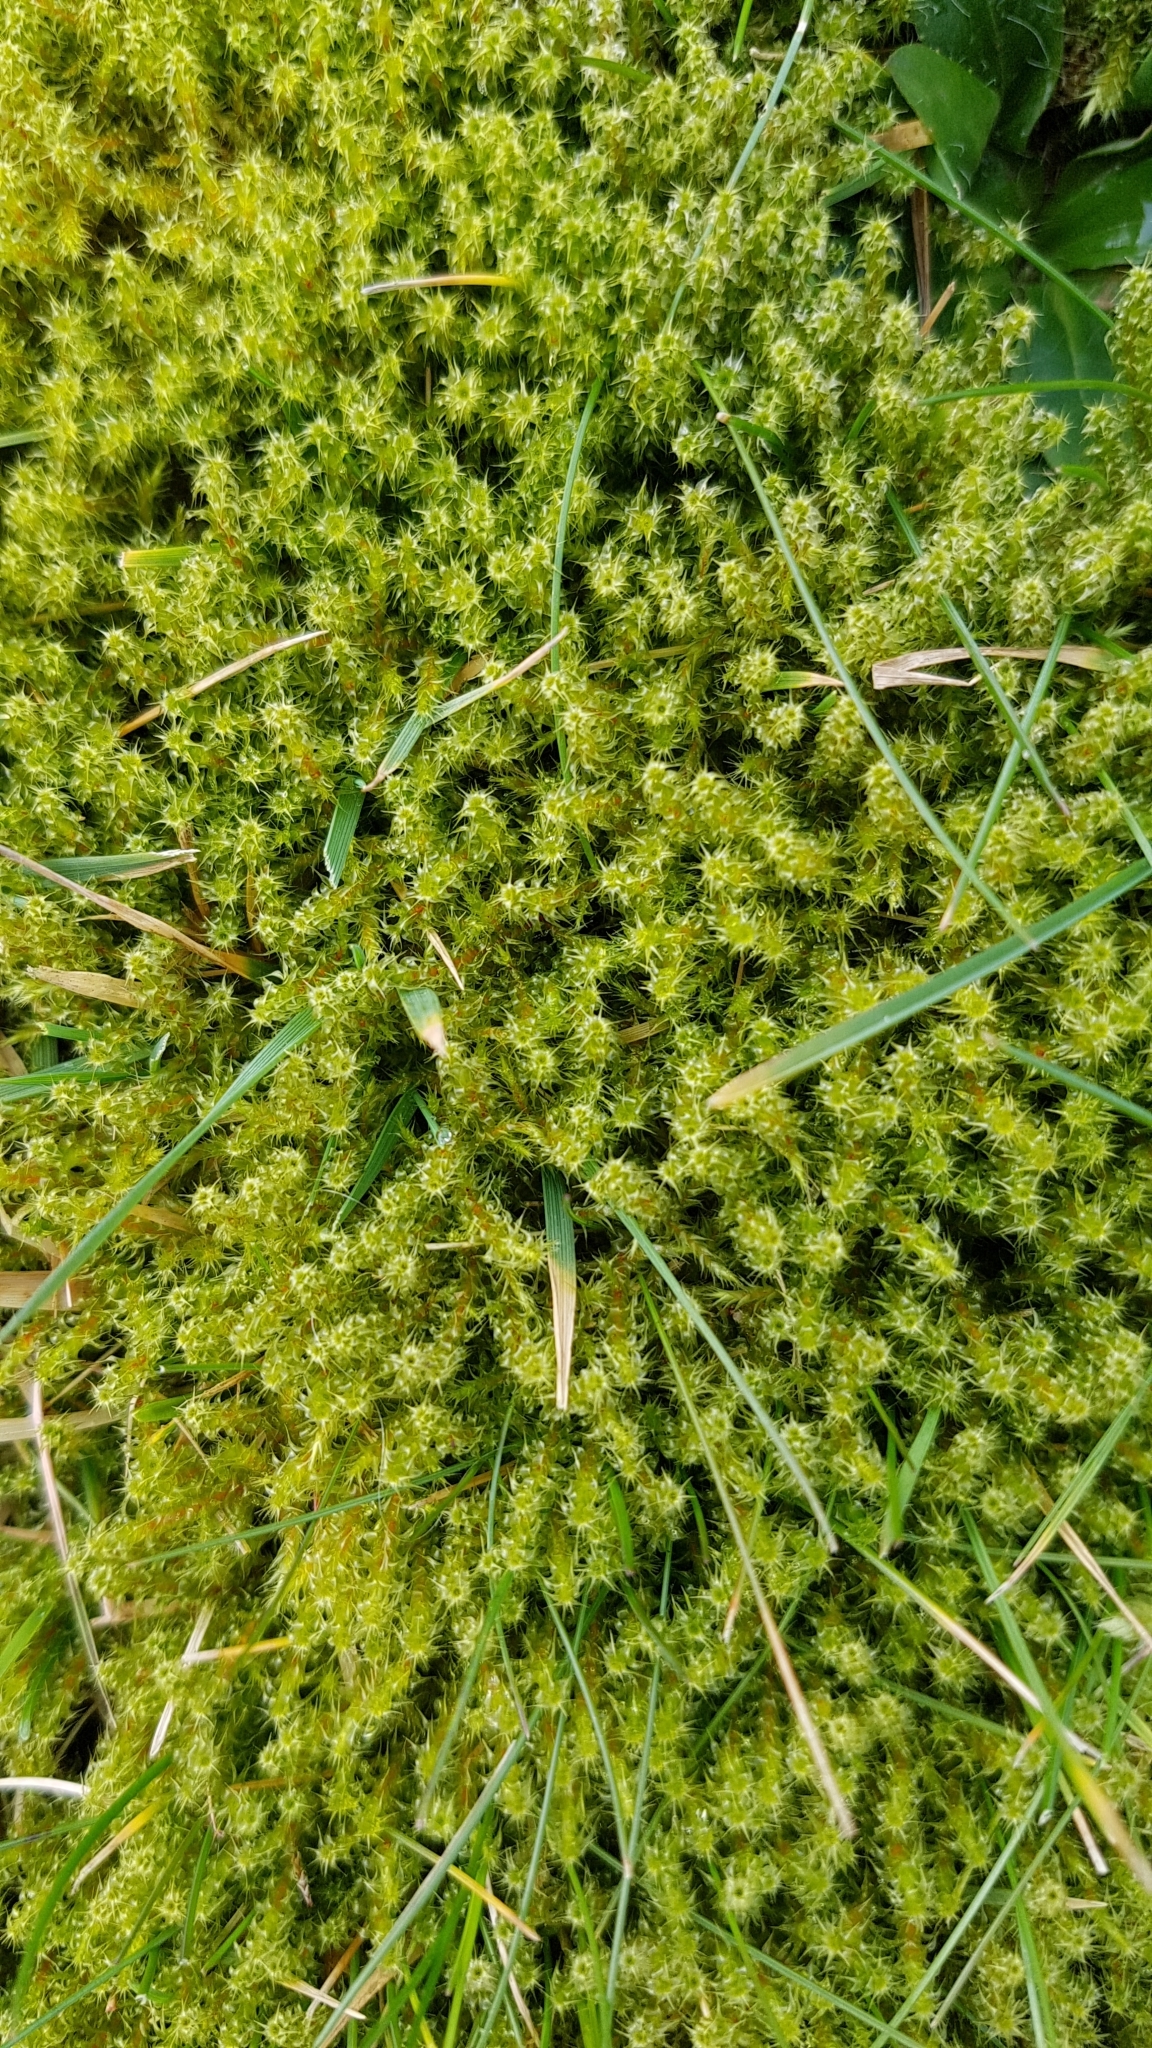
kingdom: Plantae
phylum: Bryophyta
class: Bryopsida
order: Hypnales
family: Hylocomiaceae
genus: Rhytidiadelphus
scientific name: Rhytidiadelphus squarrosus
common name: Springy turf-moss
